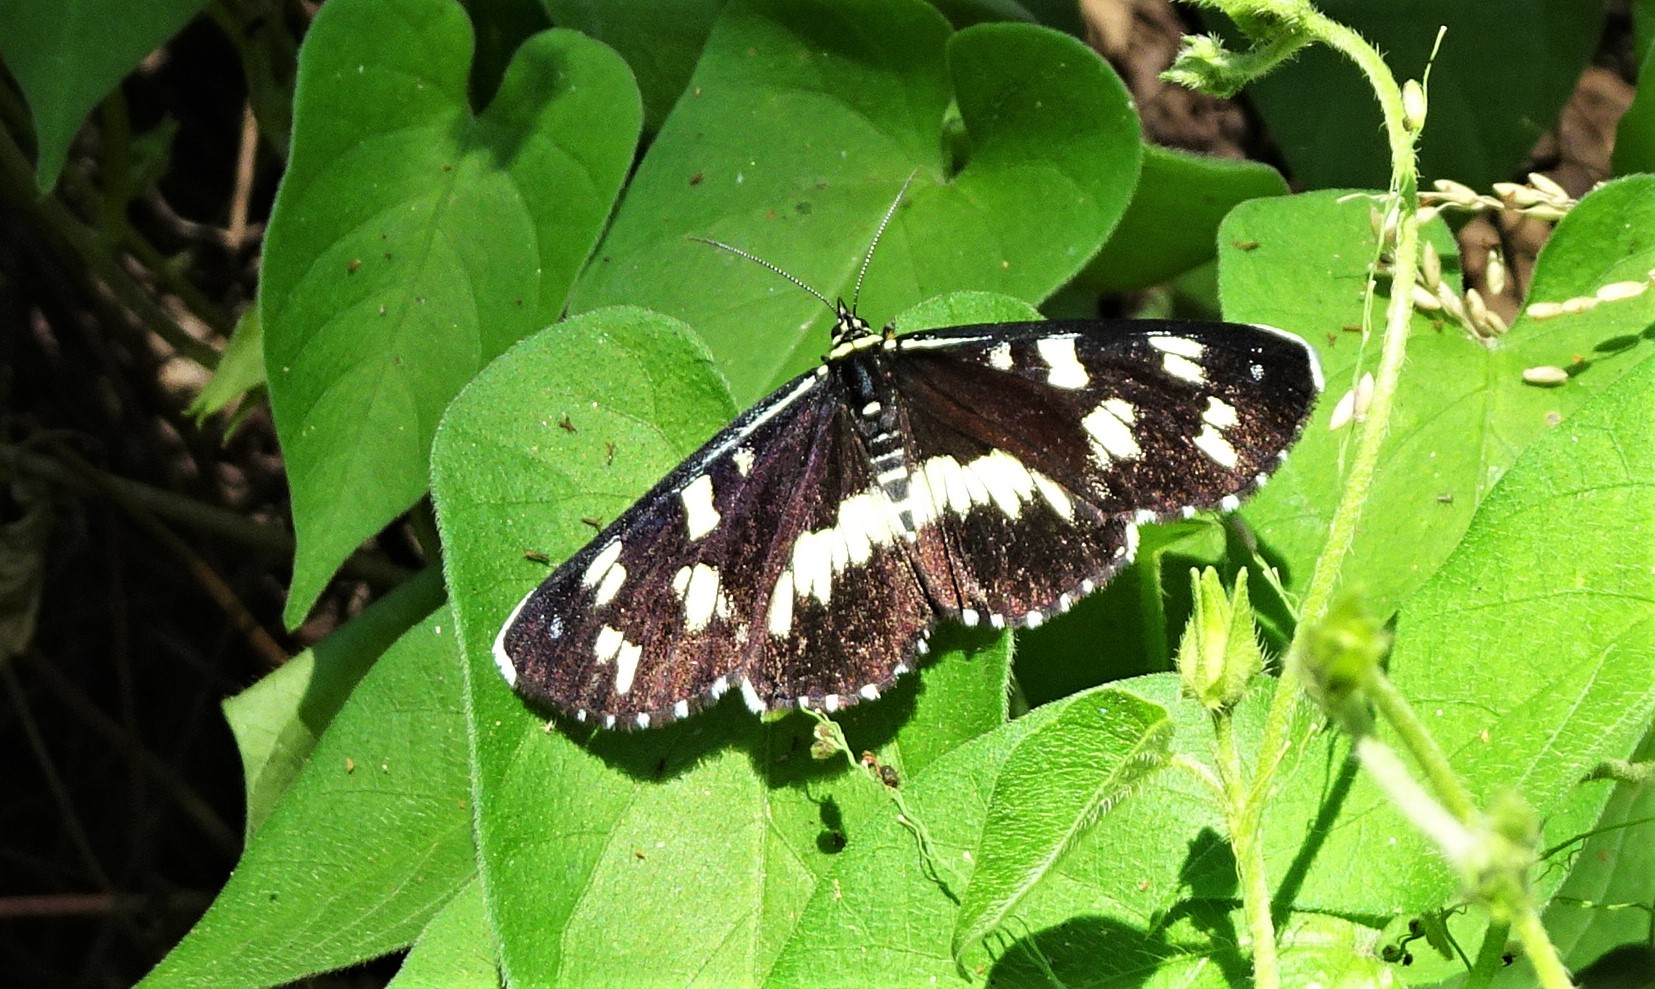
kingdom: Animalia
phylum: Arthropoda
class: Insecta
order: Lepidoptera
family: Noctuidae
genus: Cruria
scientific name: Cruria donowani
